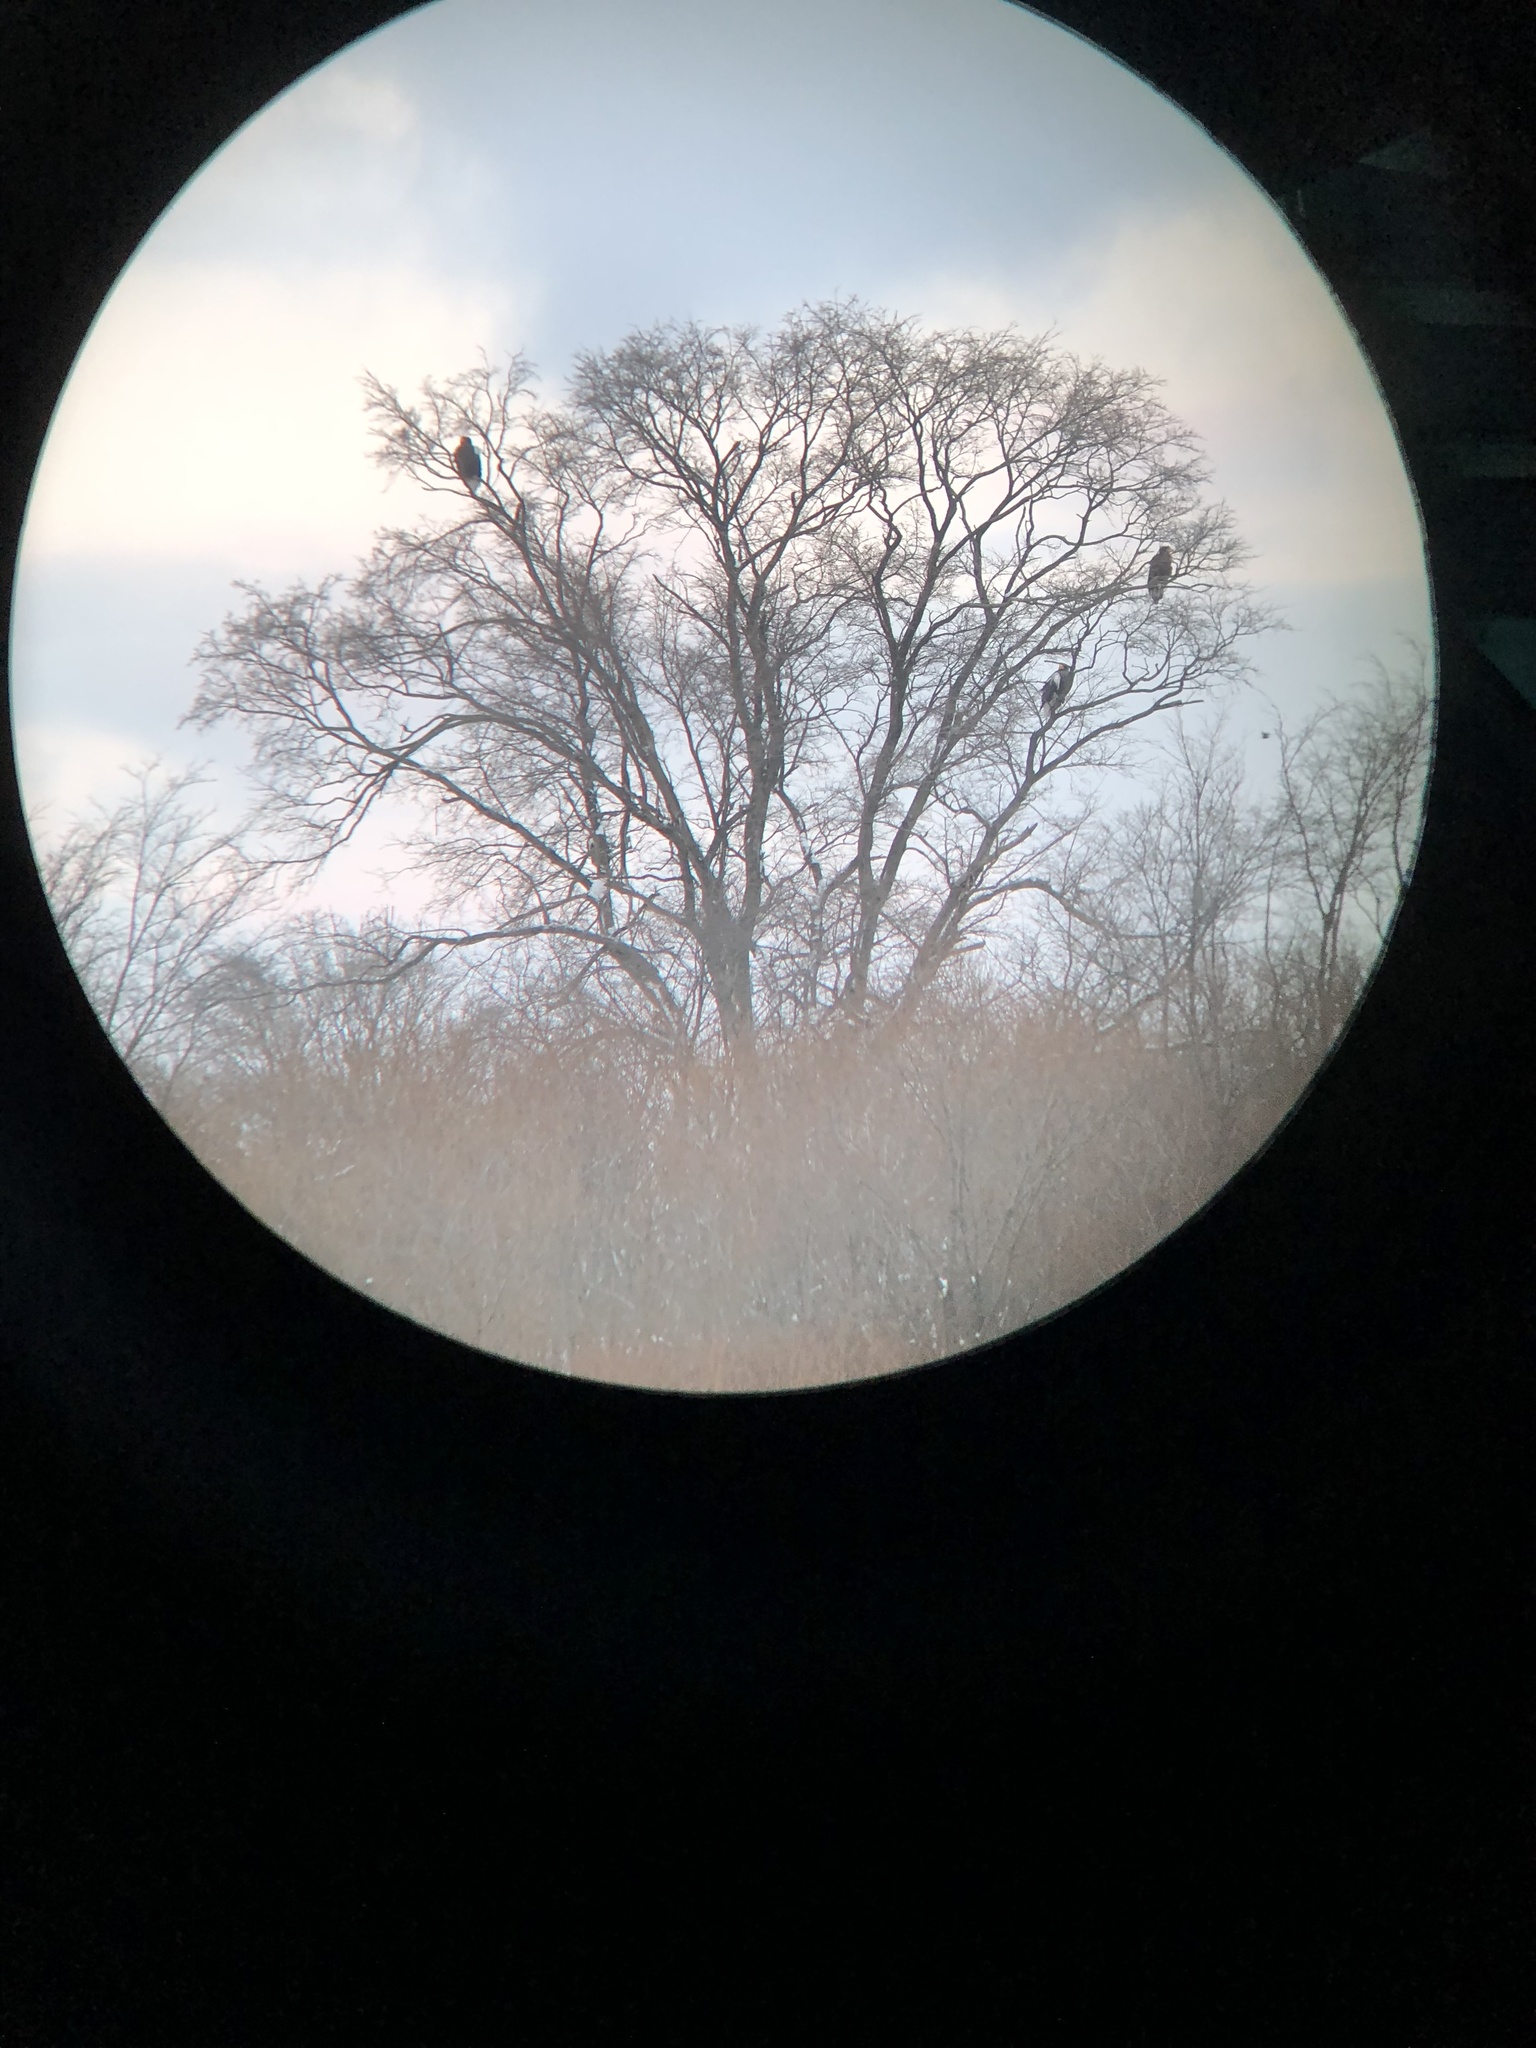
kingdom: Animalia
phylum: Chordata
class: Aves
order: Accipitriformes
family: Accipitridae
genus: Haliaeetus
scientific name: Haliaeetus pelagicus
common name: Steller's sea eagle
